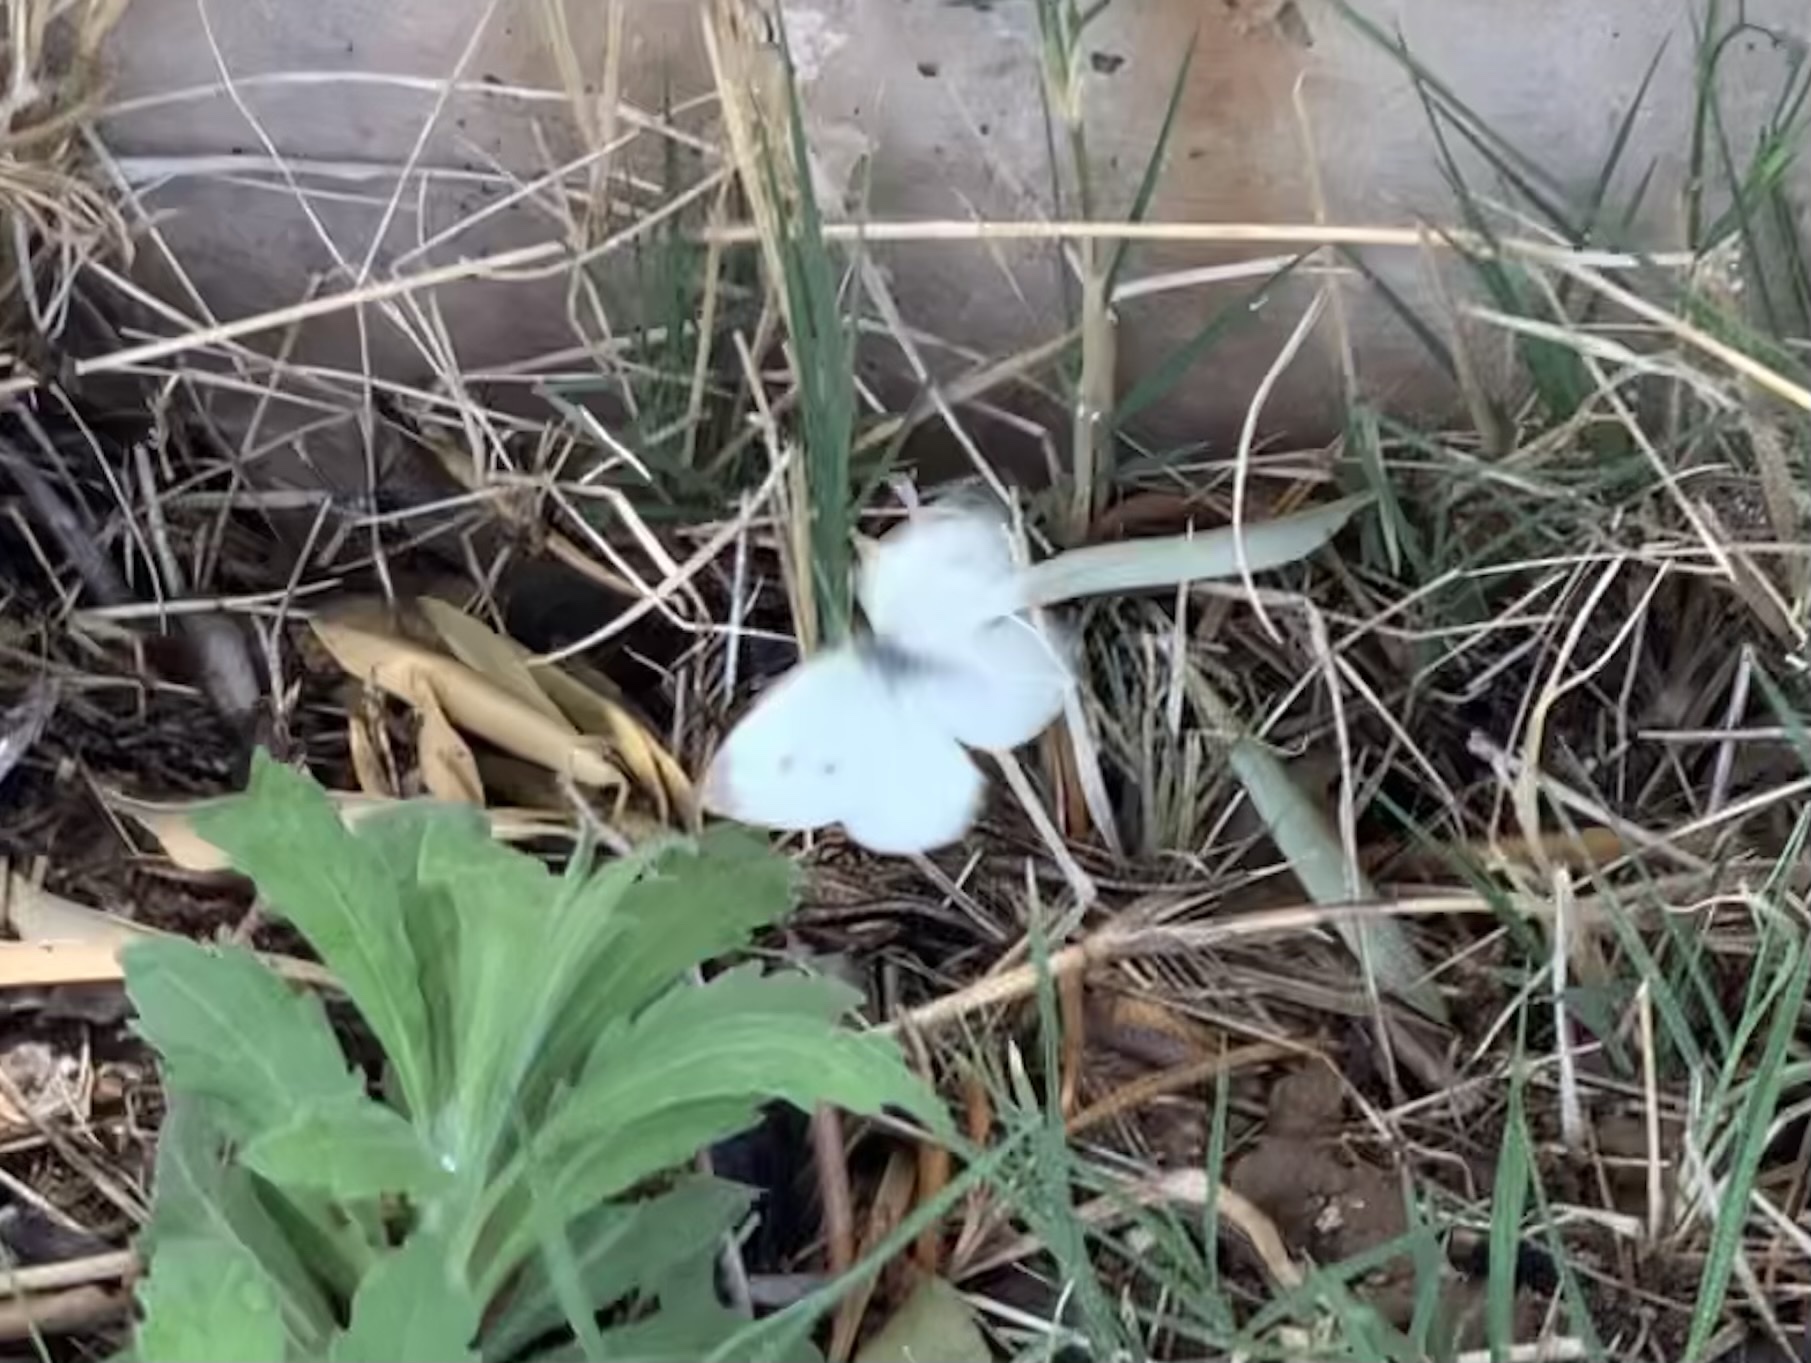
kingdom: Animalia
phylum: Arthropoda
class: Insecta
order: Lepidoptera
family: Pieridae
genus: Pieris
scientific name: Pieris rapae
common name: Small white
